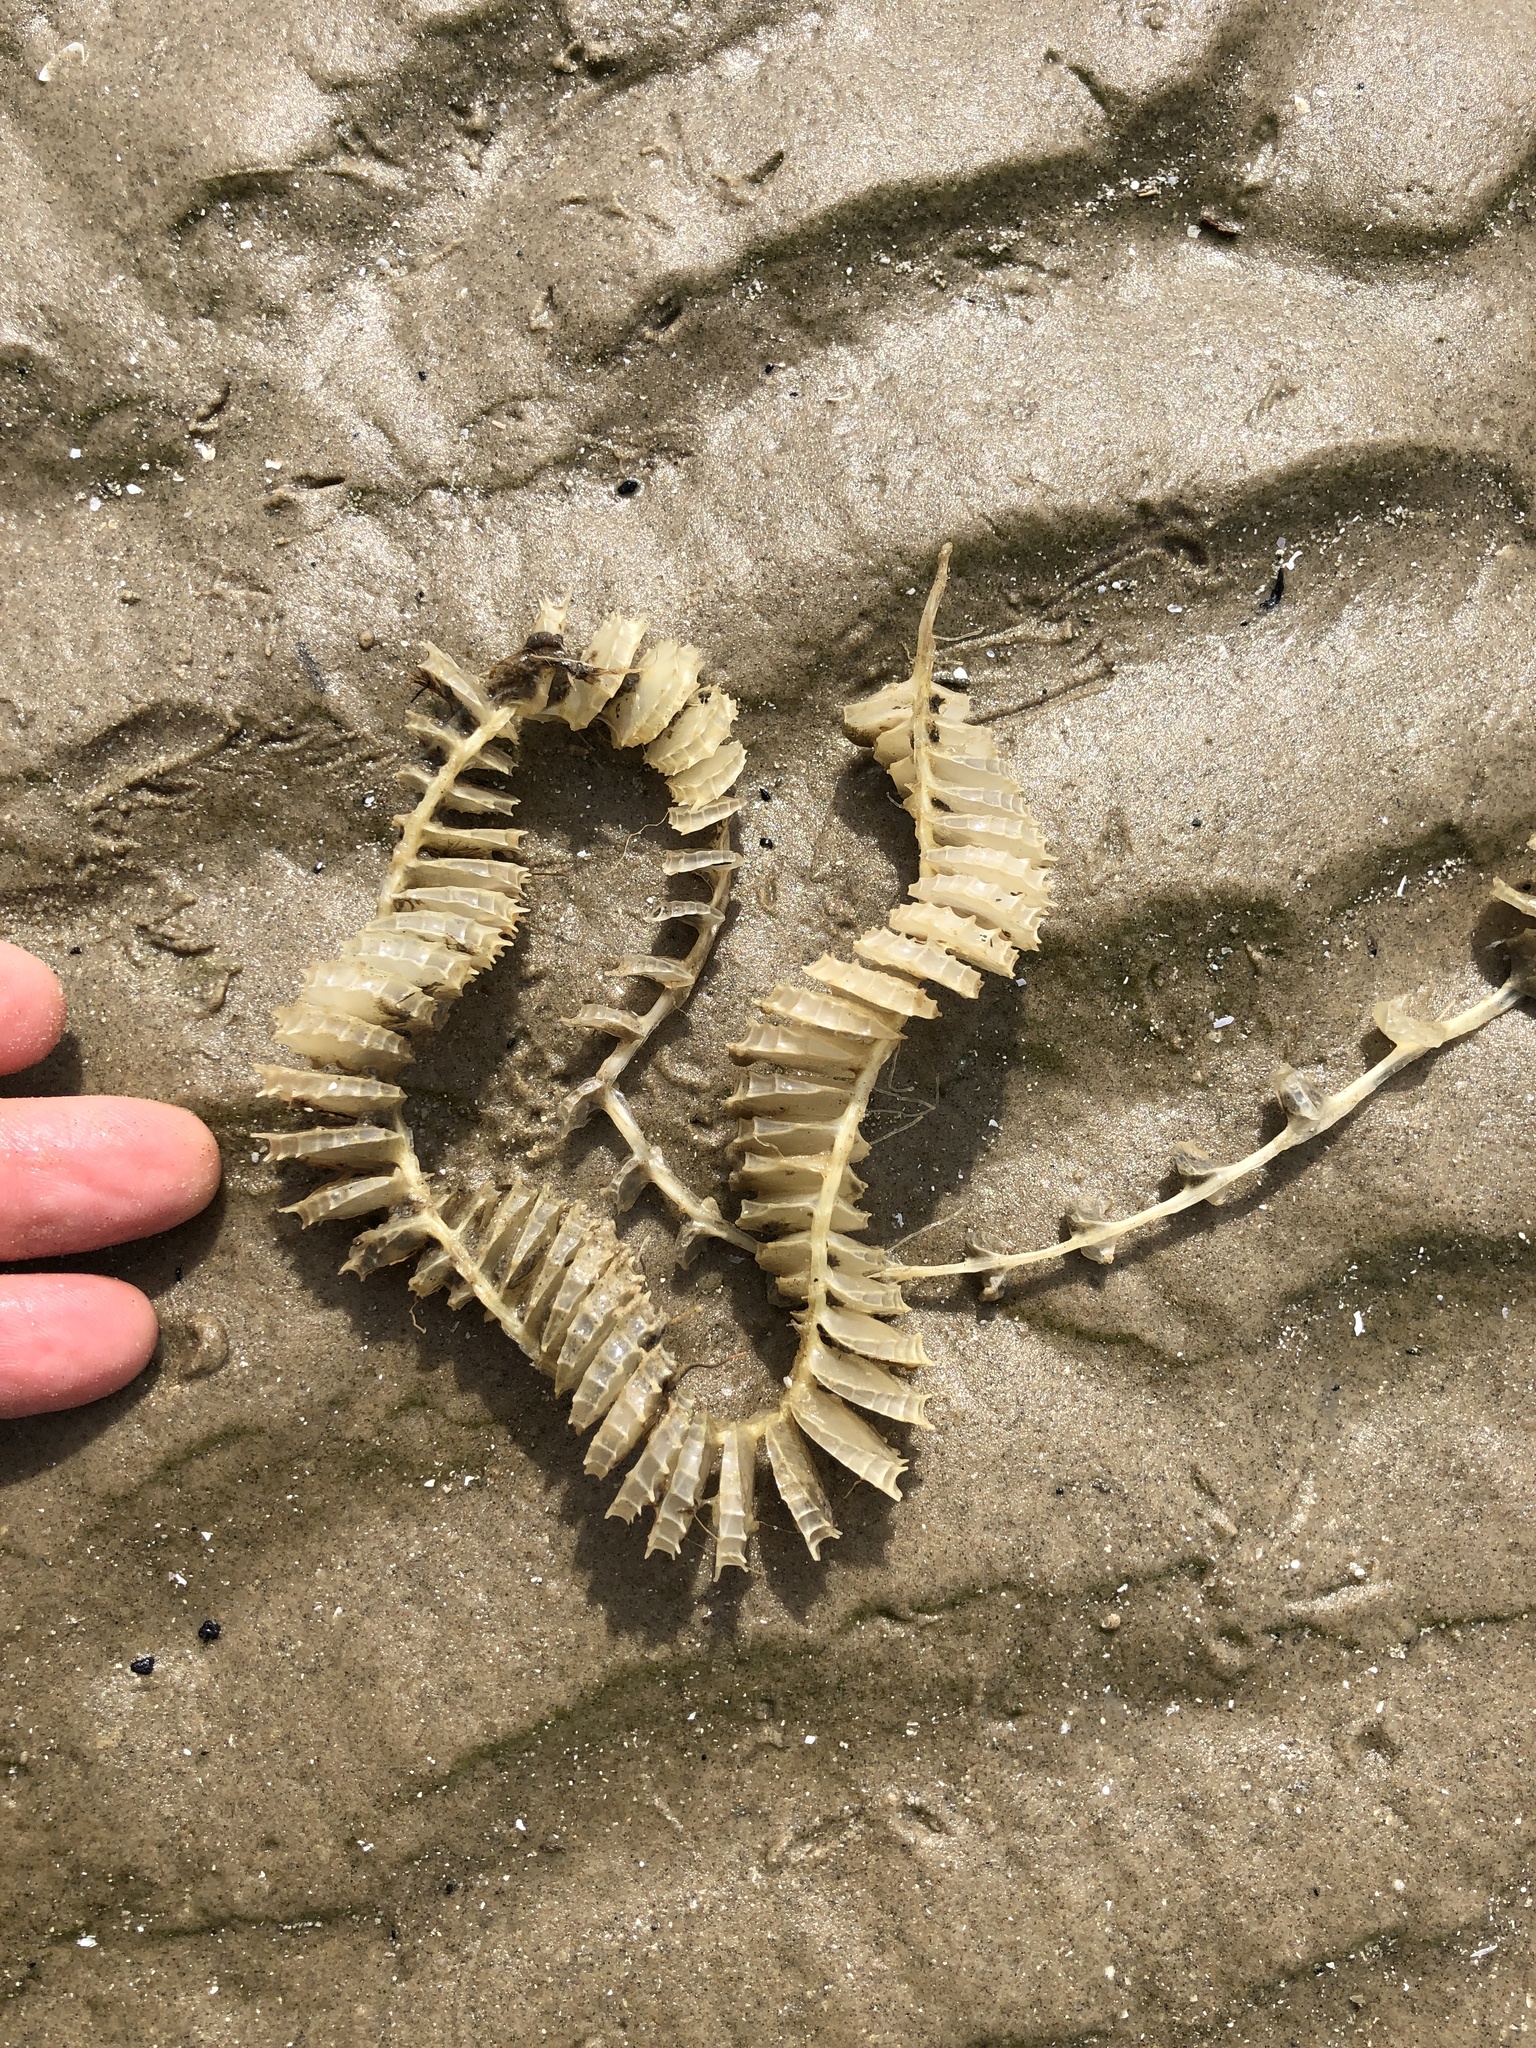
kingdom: Animalia
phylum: Mollusca
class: Gastropoda
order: Neogastropoda
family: Busyconidae
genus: Fulguropsis
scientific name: Fulguropsis spirata
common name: Pear whelk
